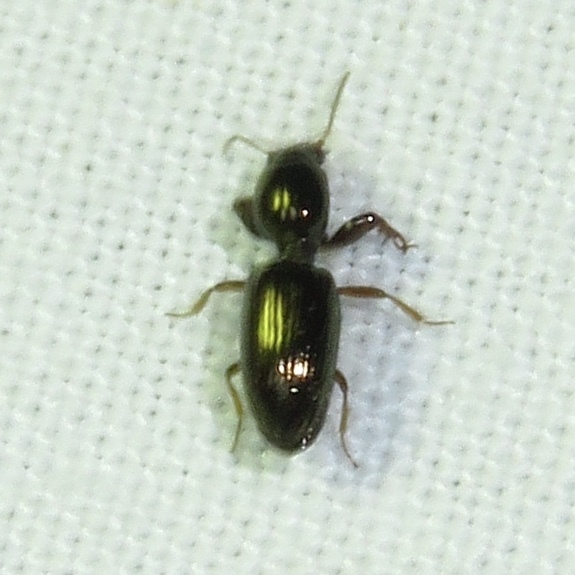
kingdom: Animalia
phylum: Arthropoda
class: Insecta
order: Coleoptera
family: Carabidae
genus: Dyschirius
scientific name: Dyschirius sphaericollis
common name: Round-necked discolored beetle
